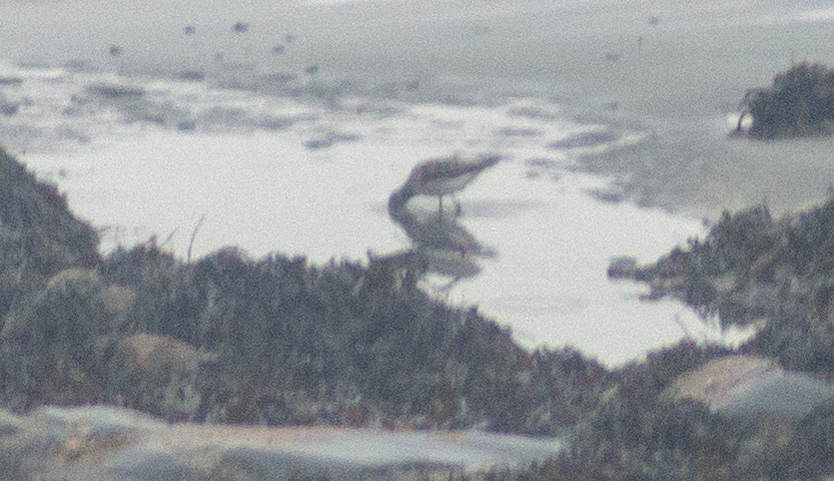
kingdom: Animalia
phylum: Chordata
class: Aves
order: Charadriiformes
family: Scolopacidae
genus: Tringa
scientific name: Tringa nebularia
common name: Common greenshank
